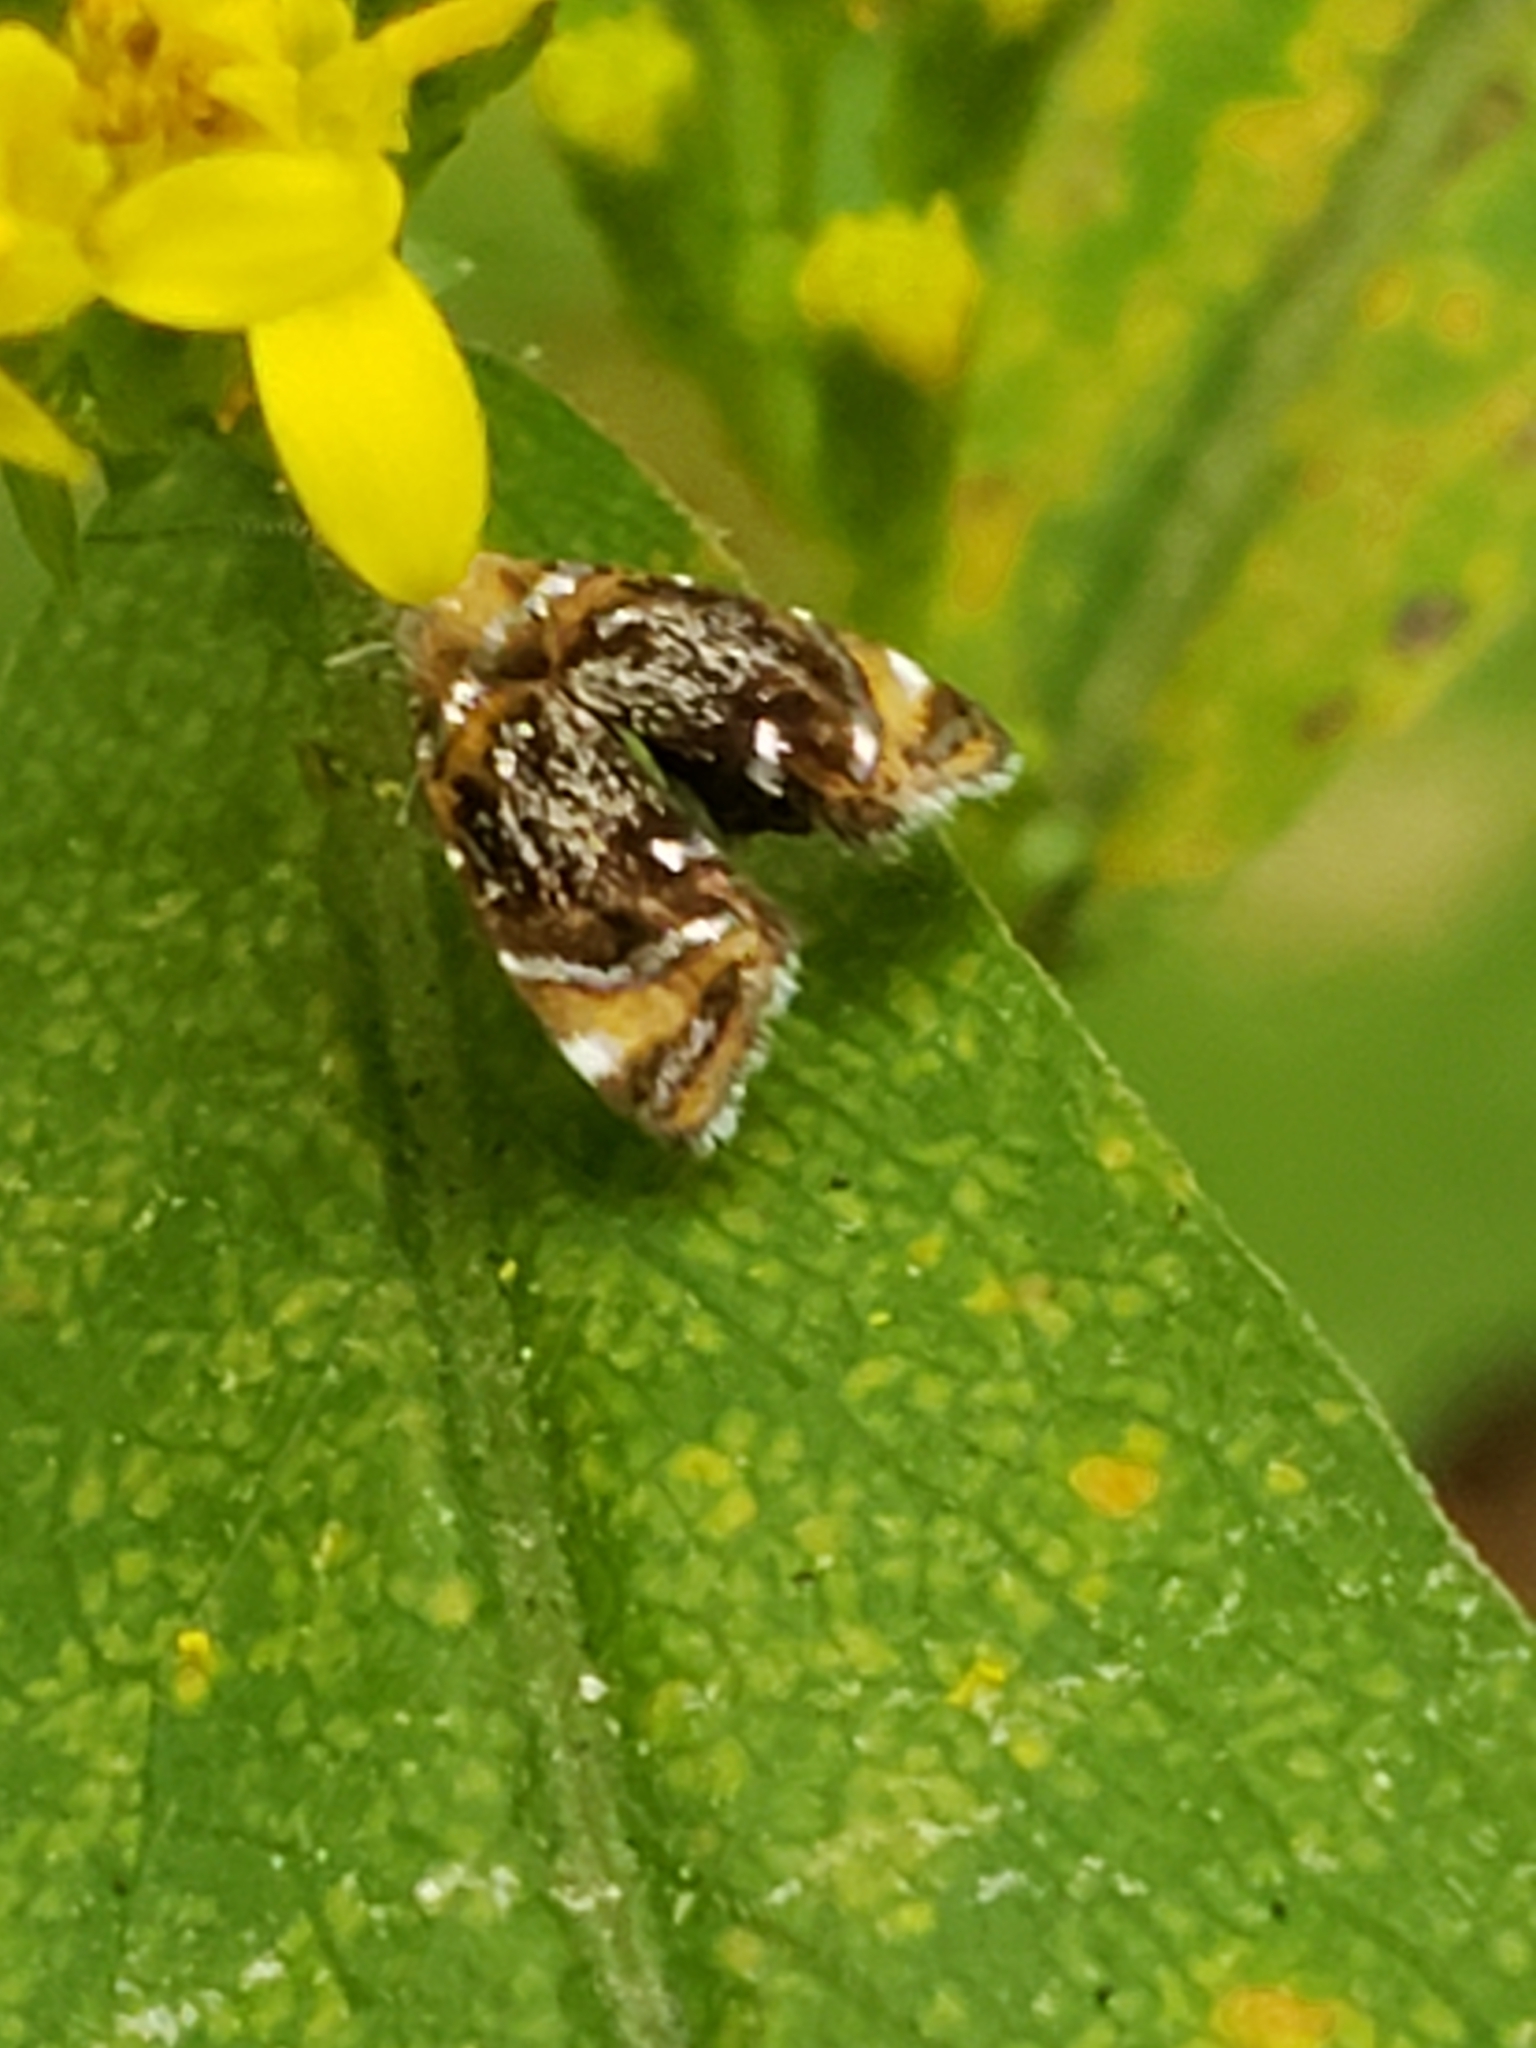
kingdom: Animalia
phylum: Arthropoda
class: Insecta
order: Lepidoptera
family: Choreutidae
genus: Prochoreutis
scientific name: Prochoreutis inflatella
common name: Skullcap skeletonizer moth
